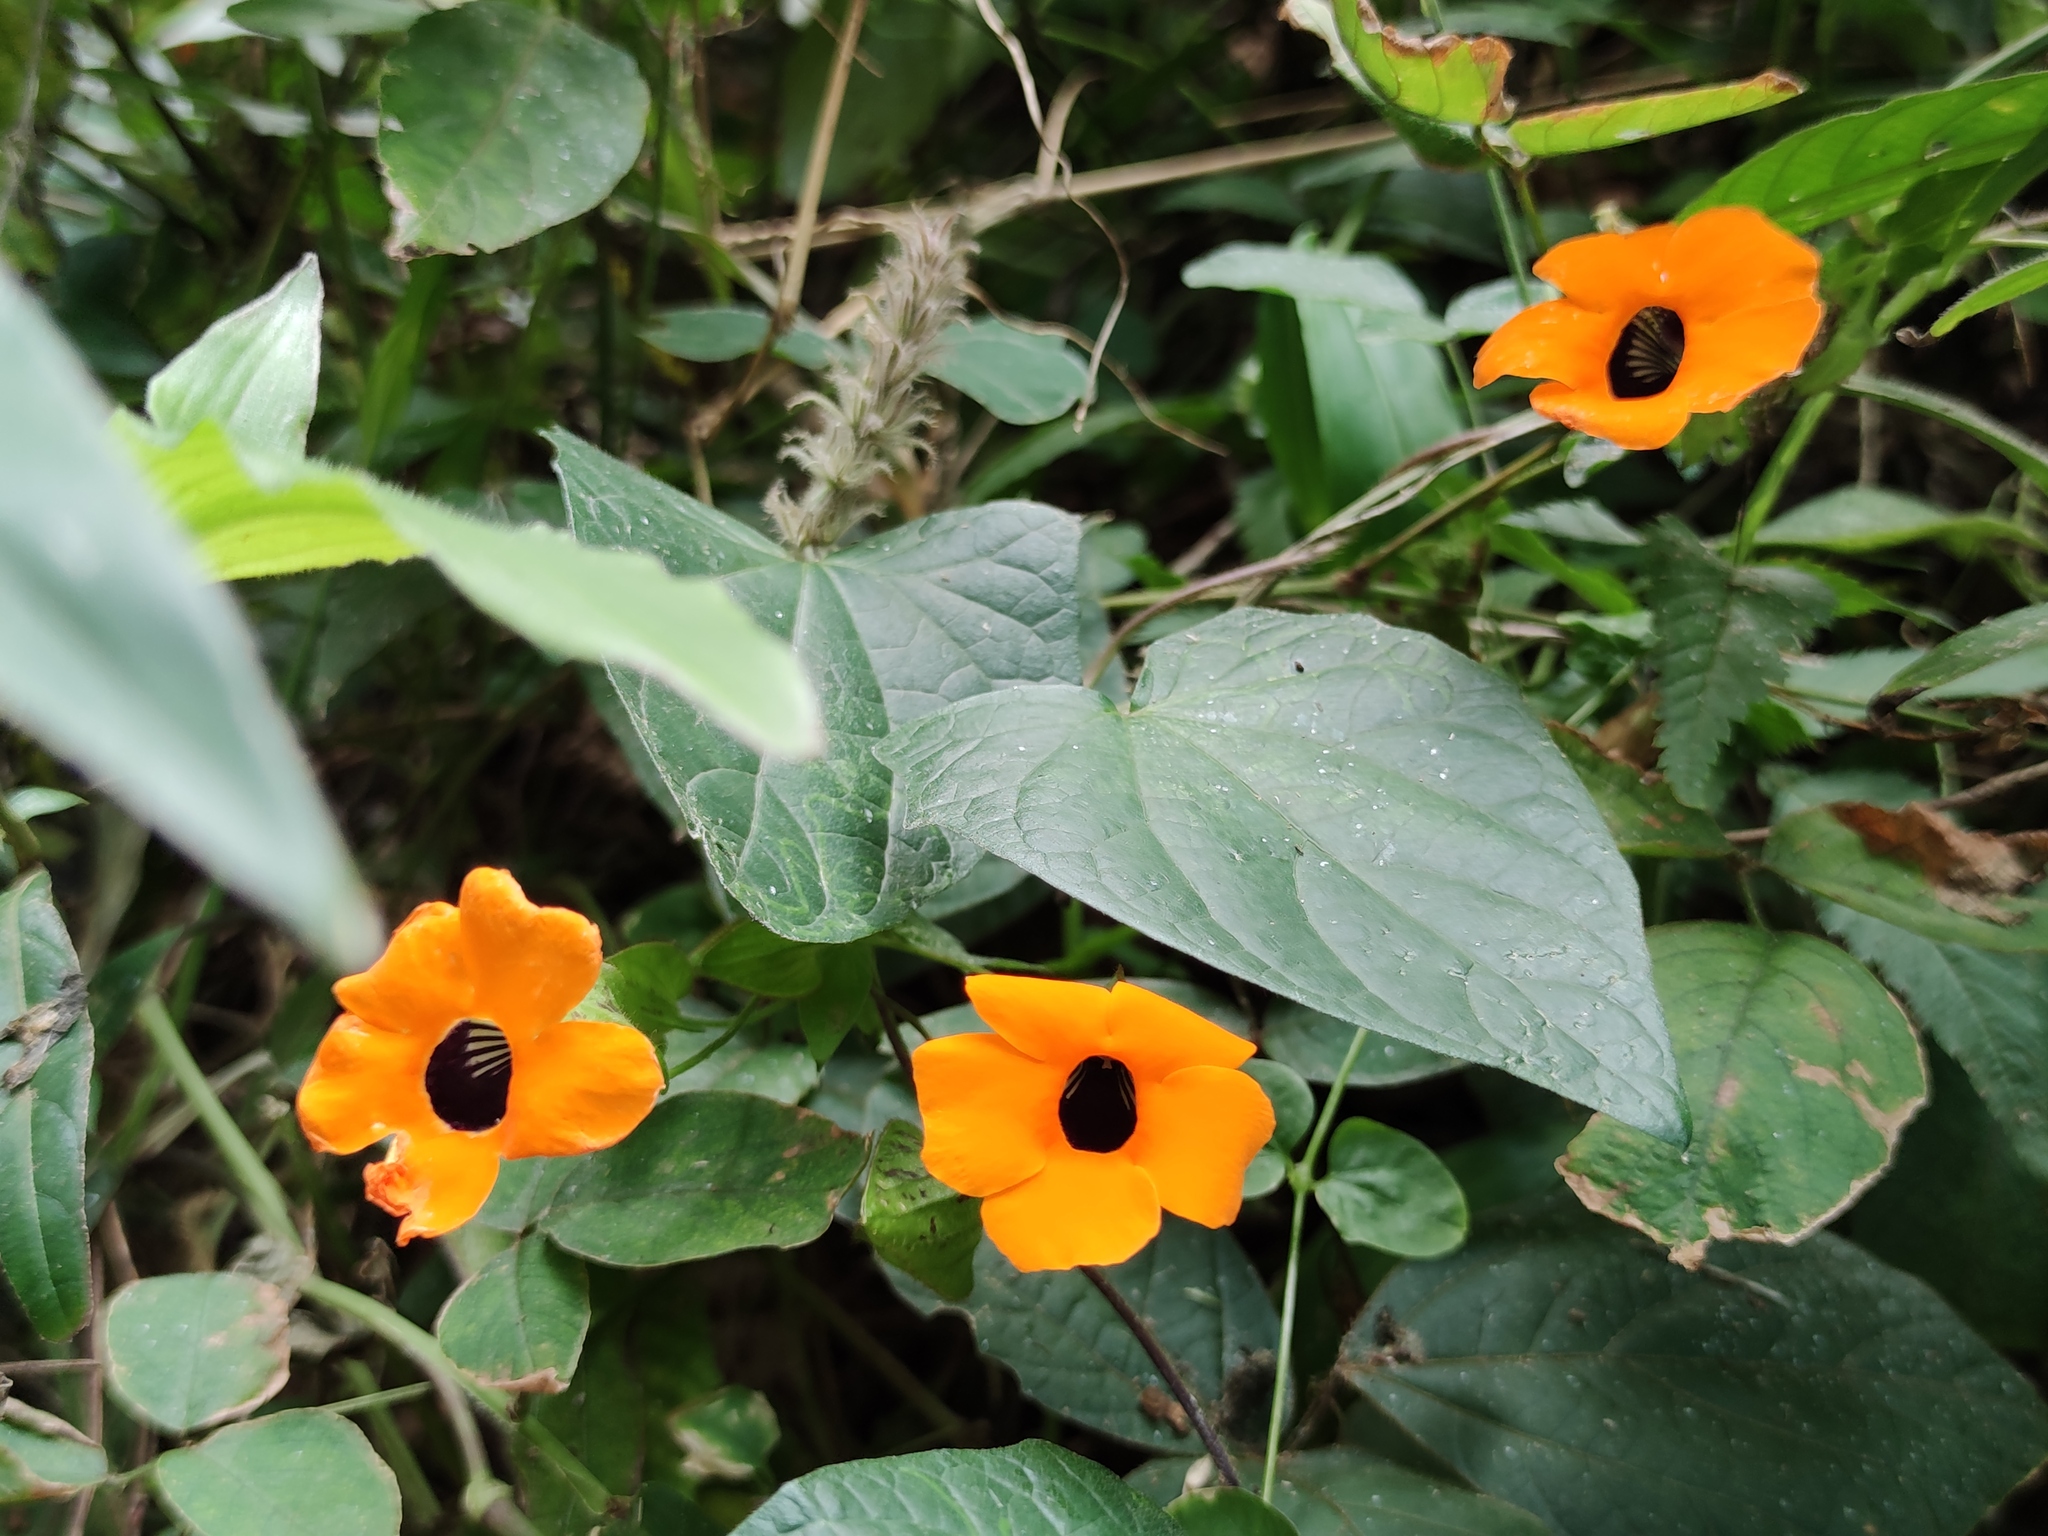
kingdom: Plantae
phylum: Tracheophyta
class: Magnoliopsida
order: Lamiales
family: Acanthaceae
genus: Thunbergia
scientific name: Thunbergia alata
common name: Blackeyed susan vine
